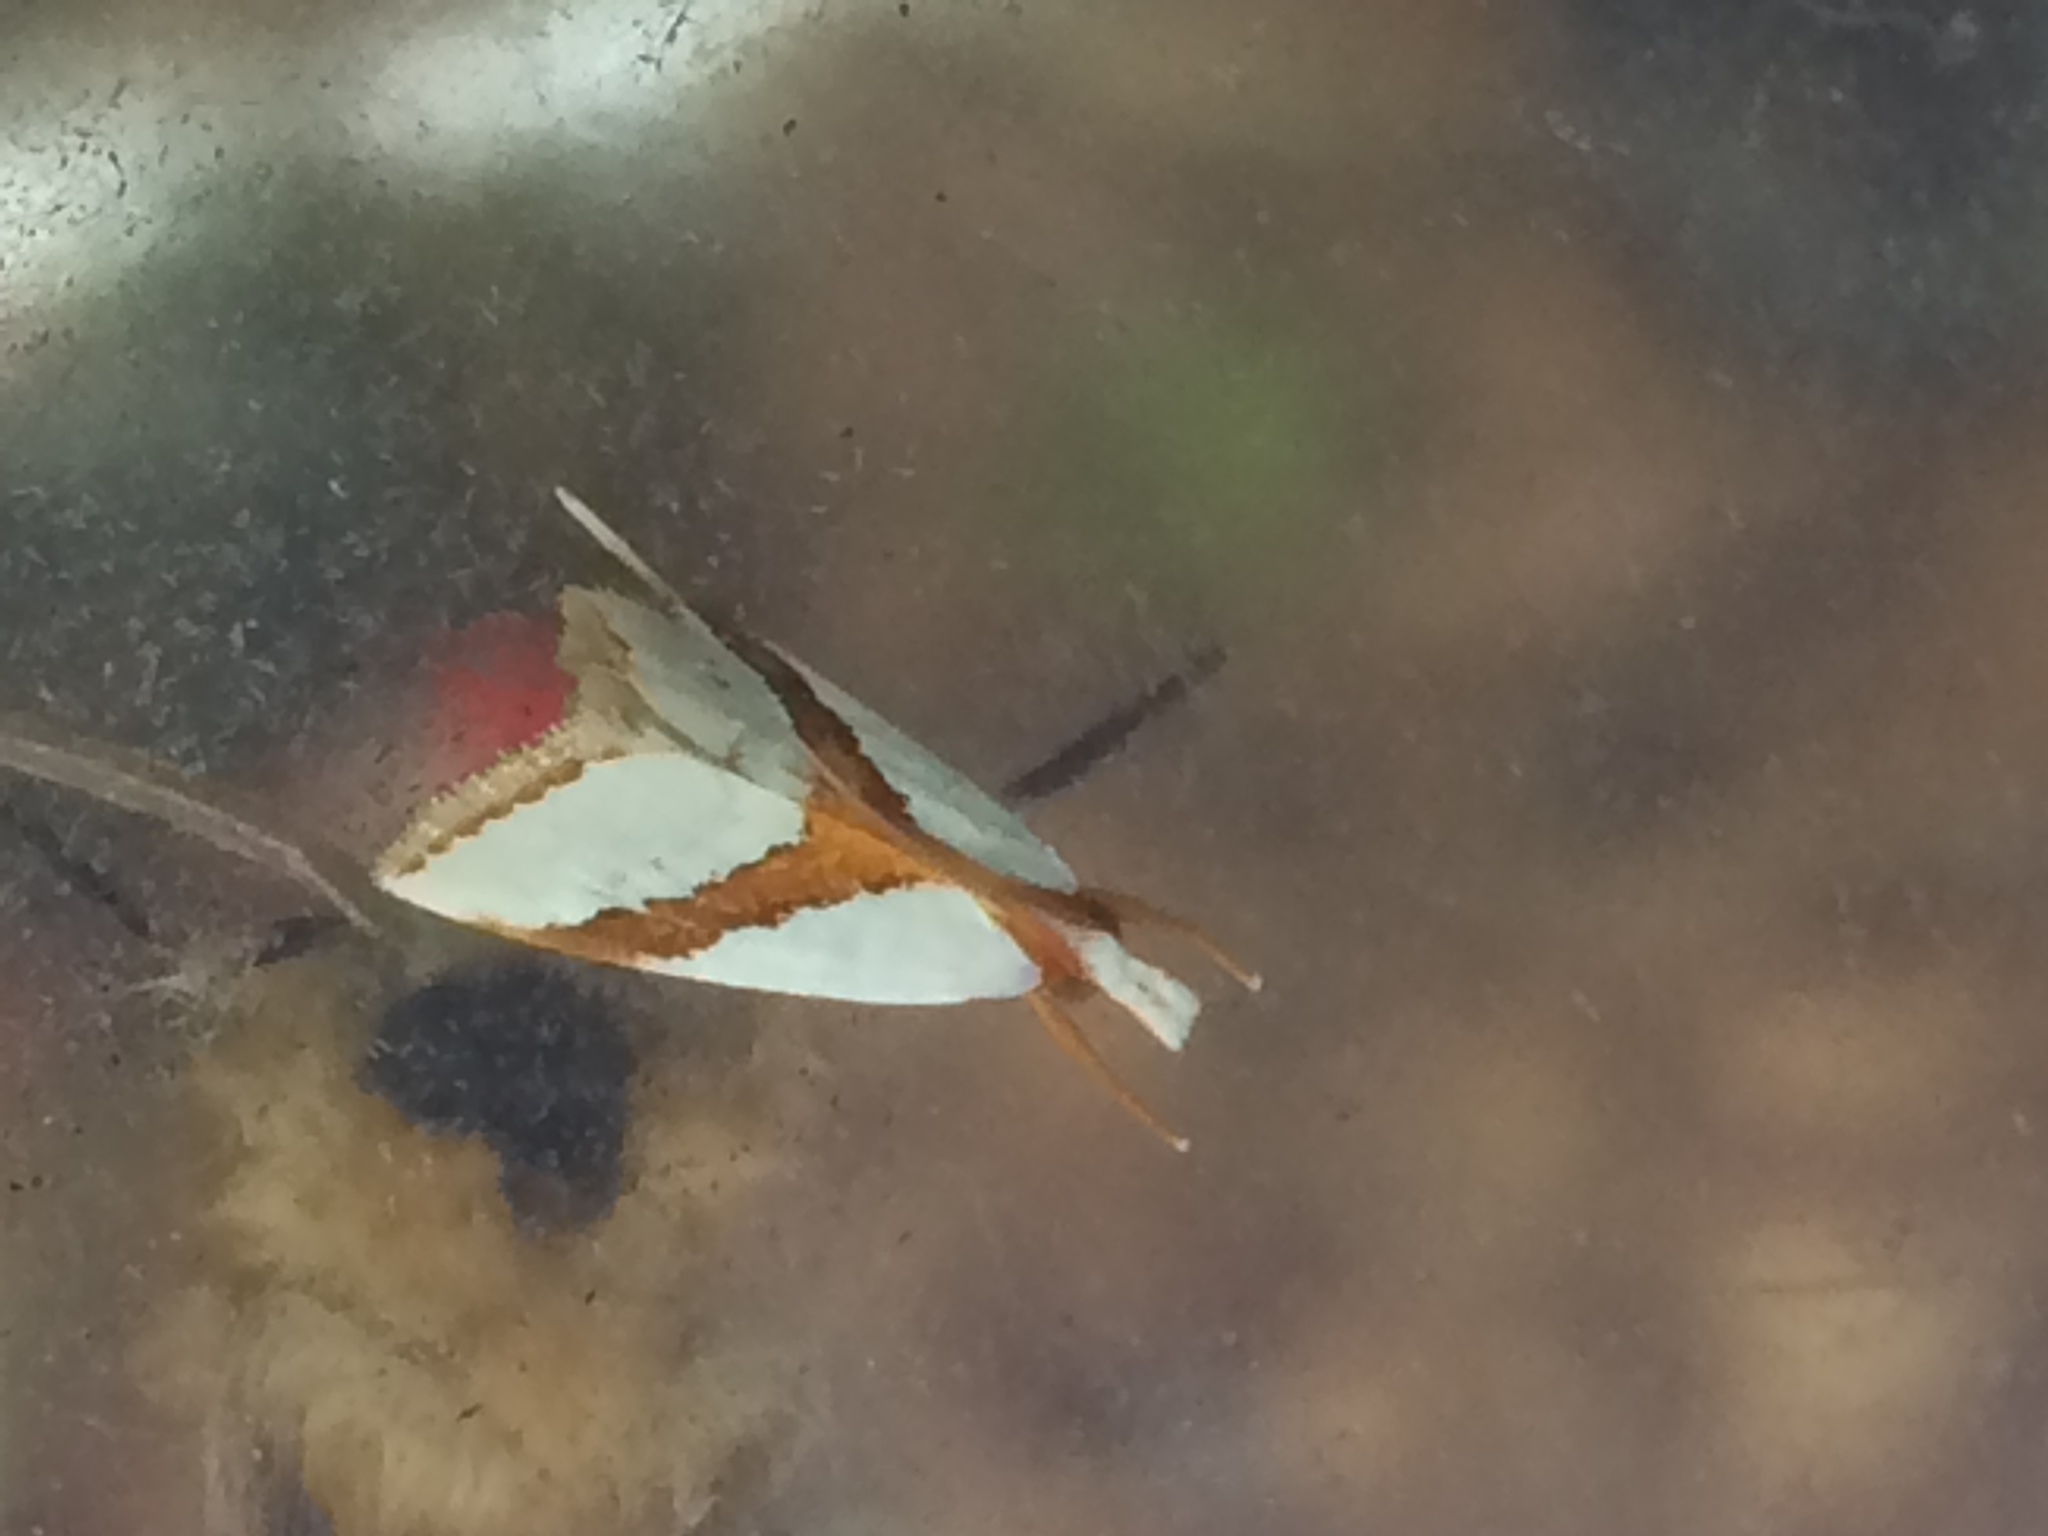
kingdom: Animalia
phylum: Arthropoda
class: Insecta
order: Lepidoptera
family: Crambidae
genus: Vaxi
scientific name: Vaxi critica
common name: Straight-lined vaxi moth
